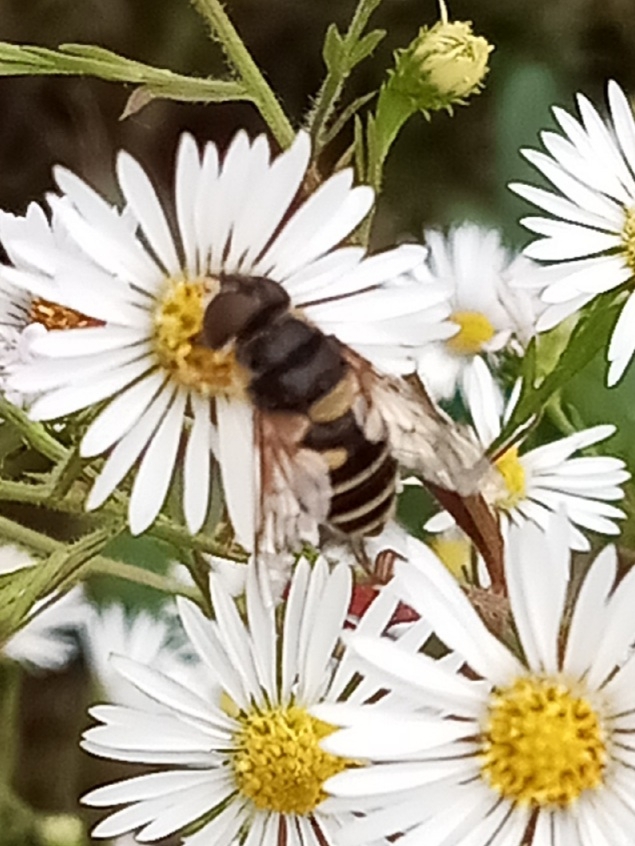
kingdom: Animalia
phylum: Arthropoda
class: Insecta
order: Diptera
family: Syrphidae
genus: Eristalis
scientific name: Eristalis transversa
